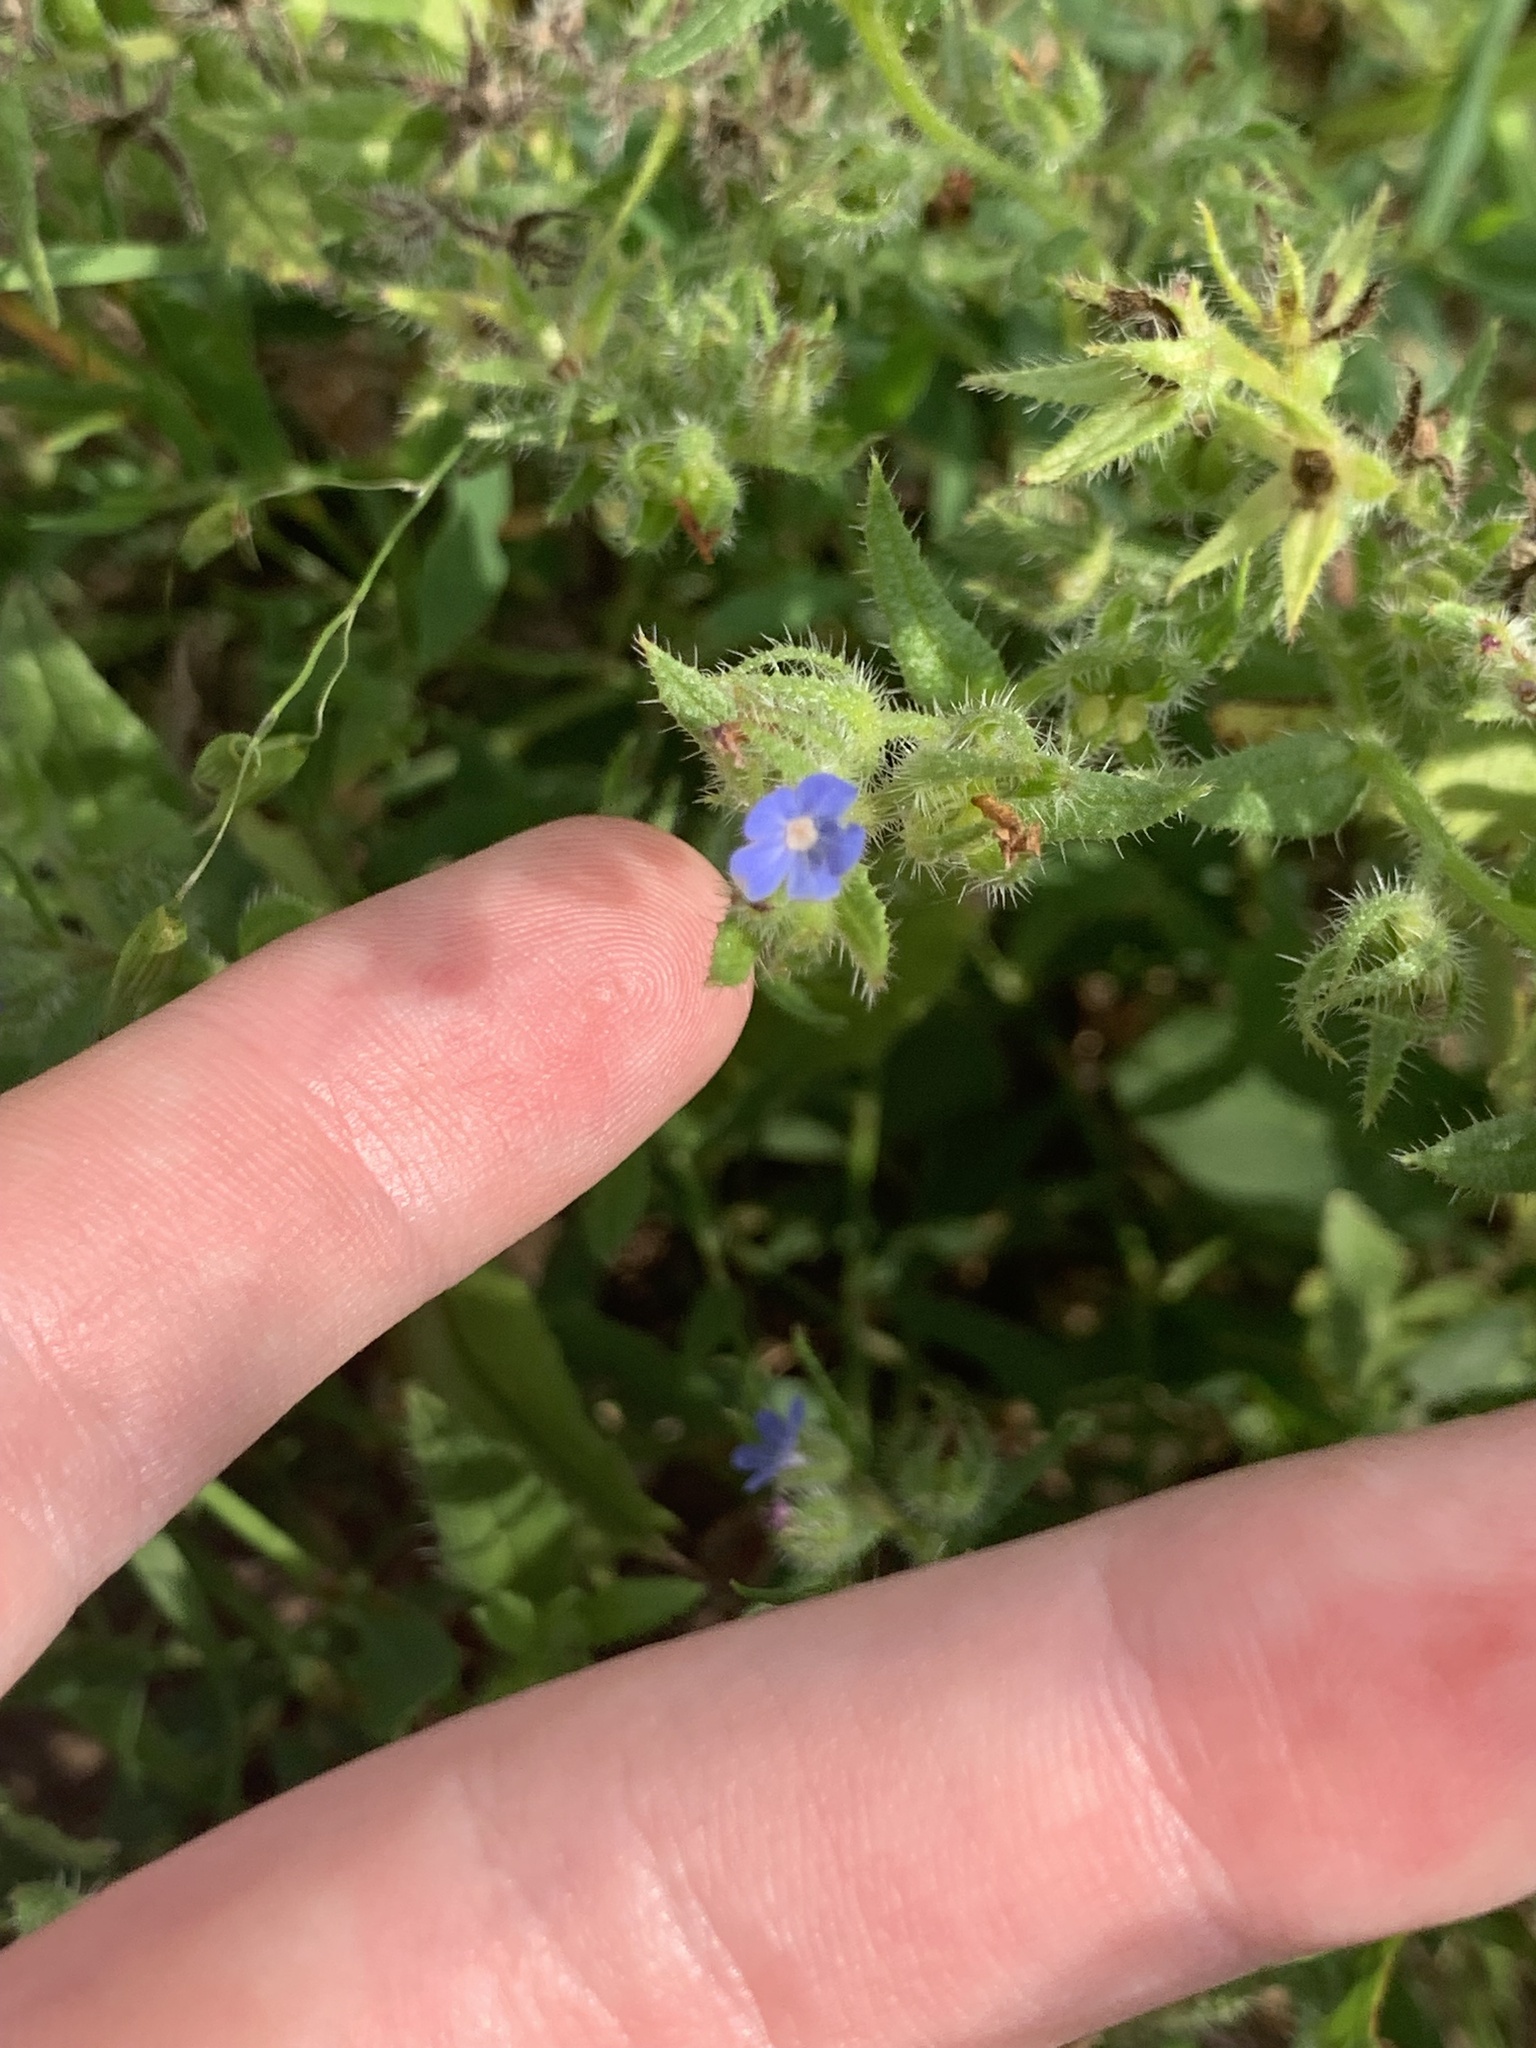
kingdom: Plantae
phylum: Tracheophyta
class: Magnoliopsida
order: Boraginales
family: Boraginaceae
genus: Lycopsis
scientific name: Lycopsis arvensis
